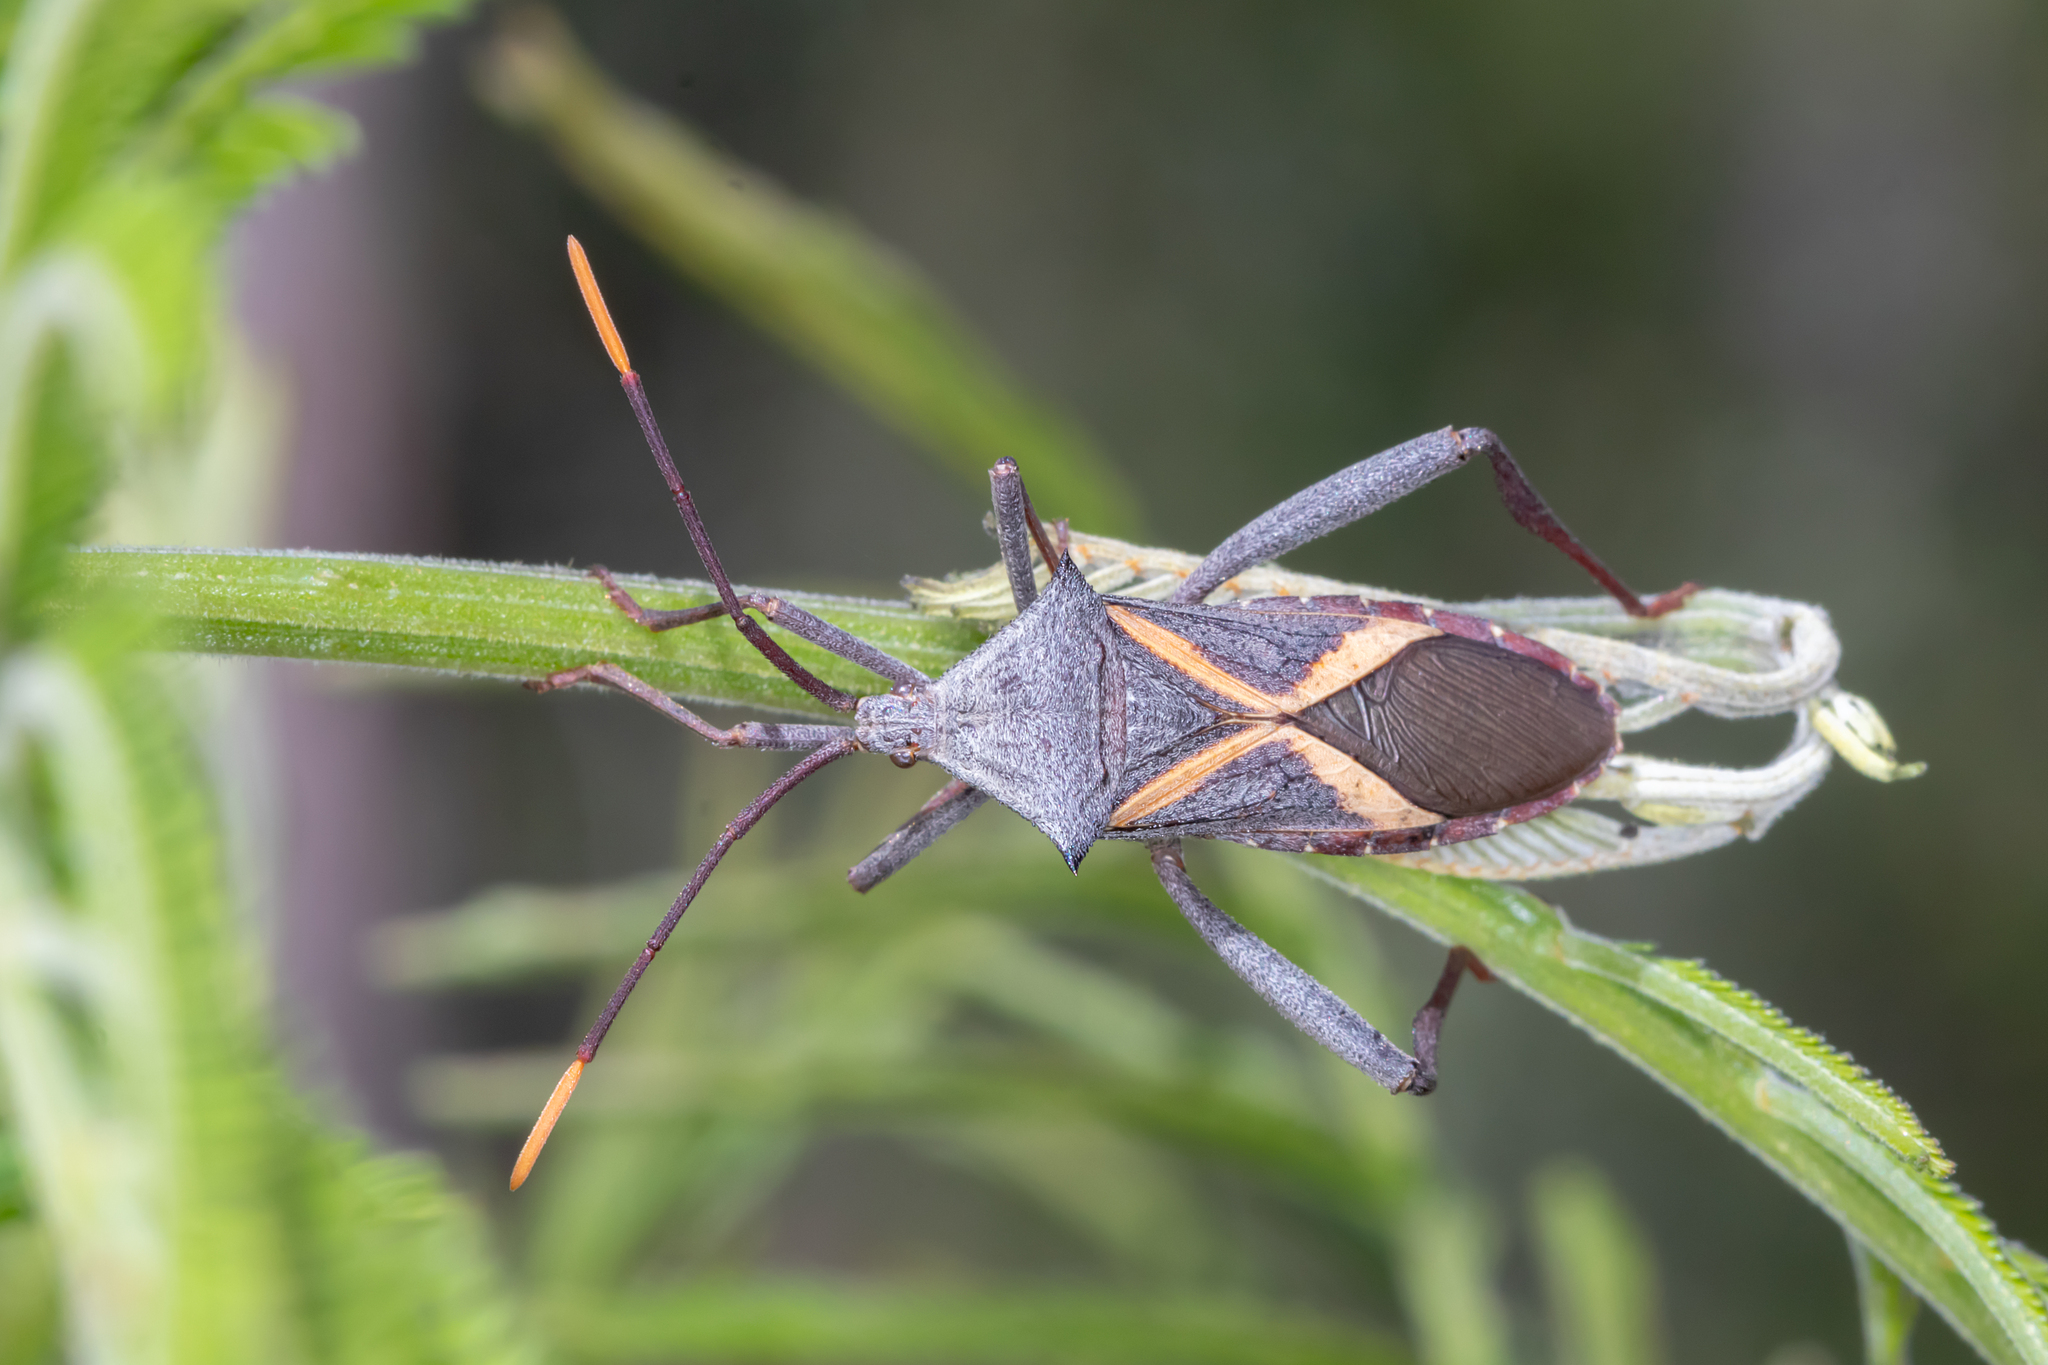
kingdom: Animalia
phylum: Arthropoda
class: Insecta
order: Hemiptera
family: Coreidae
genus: Mictis
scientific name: Mictis profana
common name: Crusader bug
